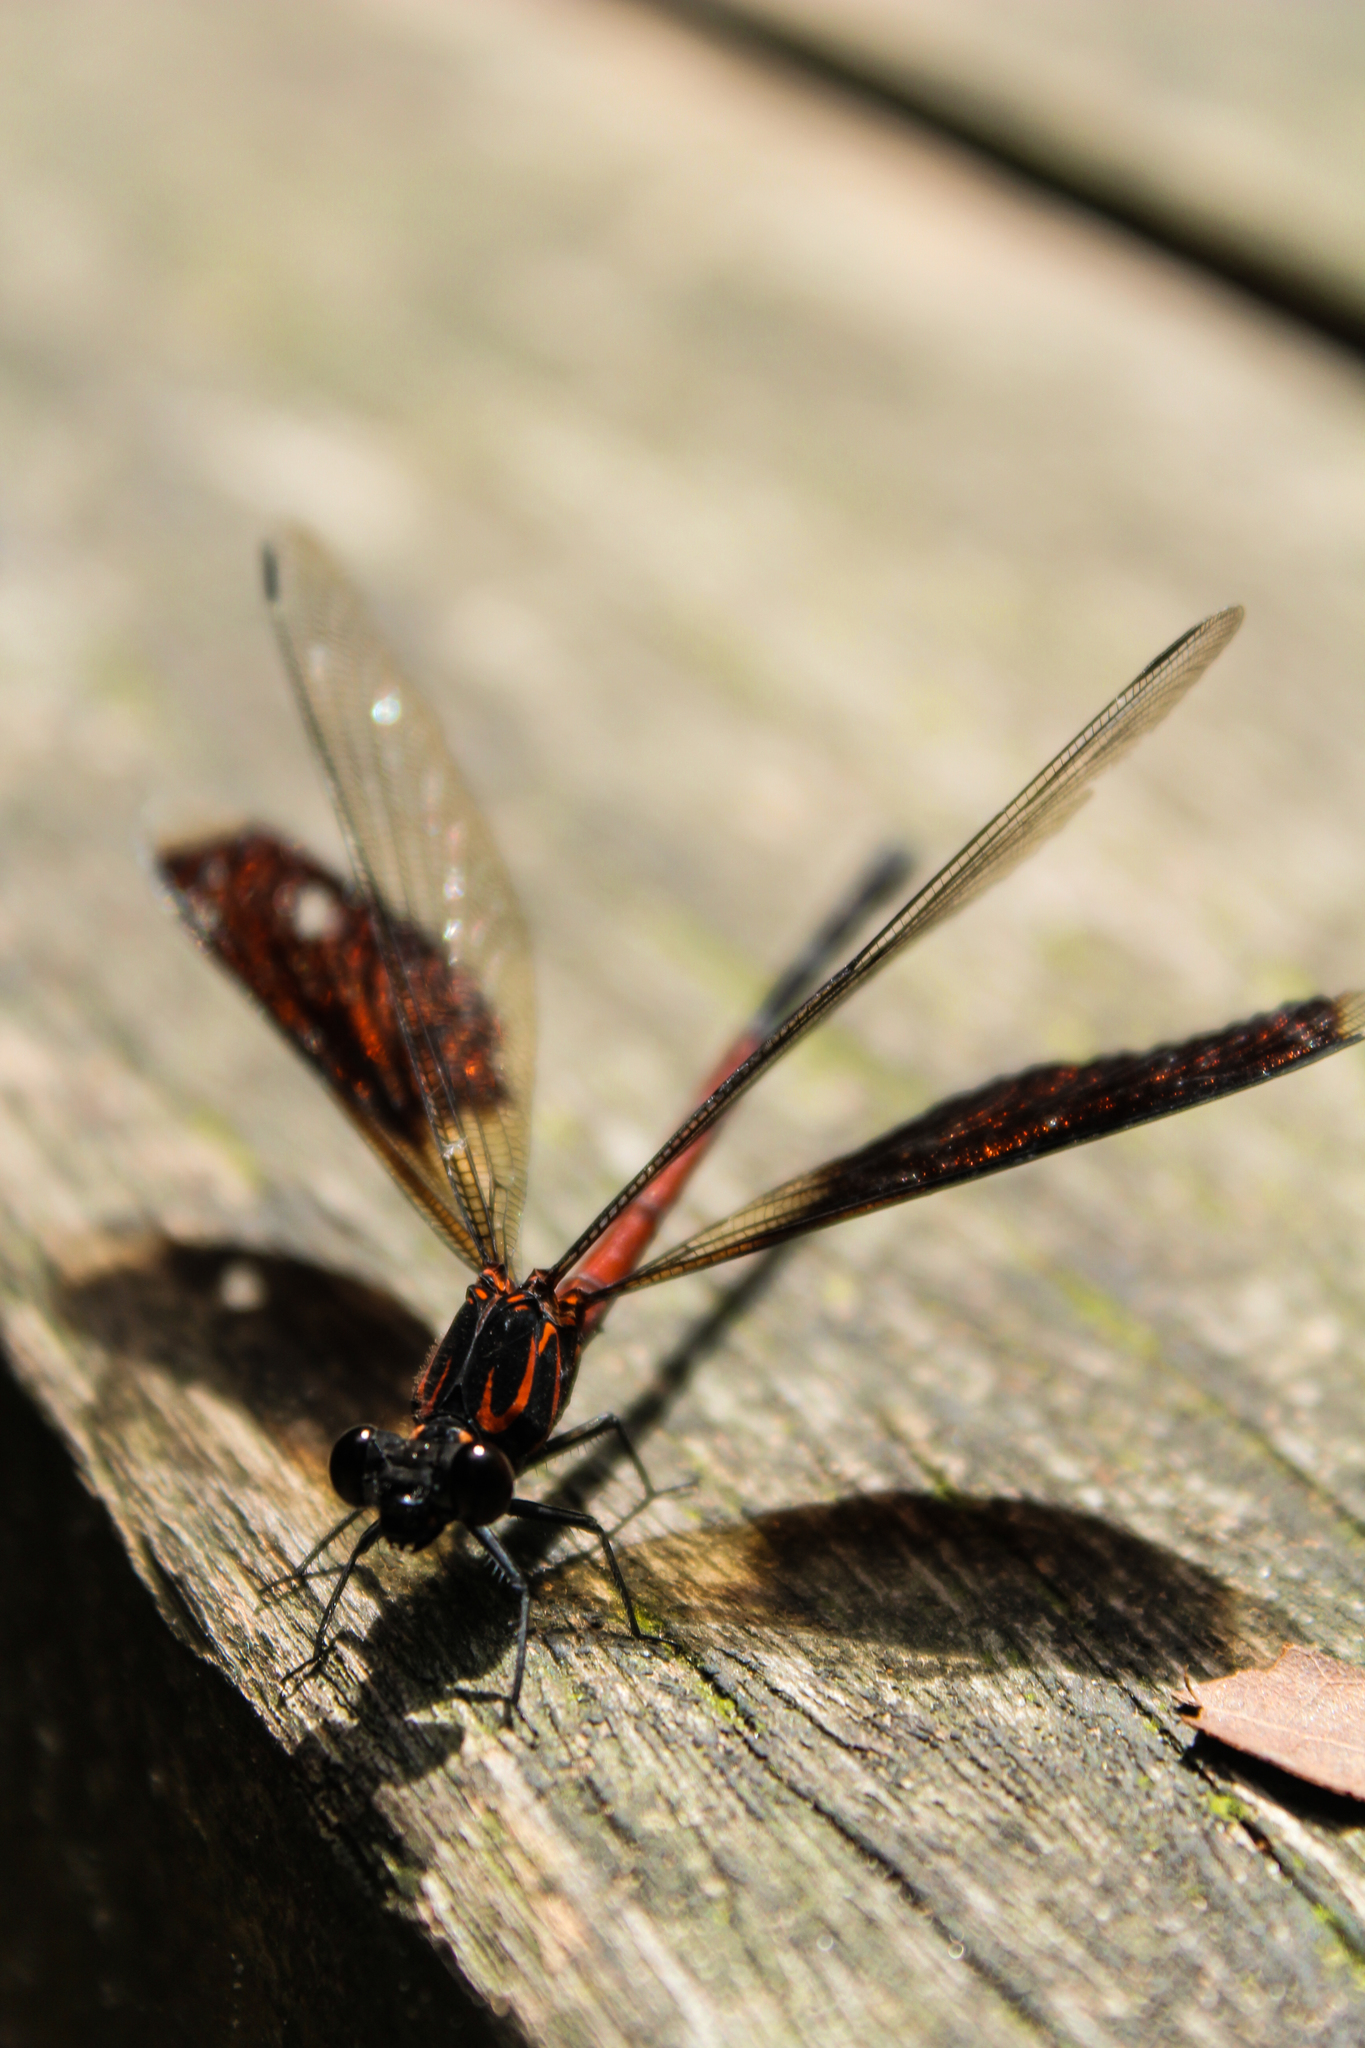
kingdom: Animalia
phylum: Arthropoda
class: Insecta
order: Odonata
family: Euphaeidae
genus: Euphaea
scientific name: Euphaea formosa
